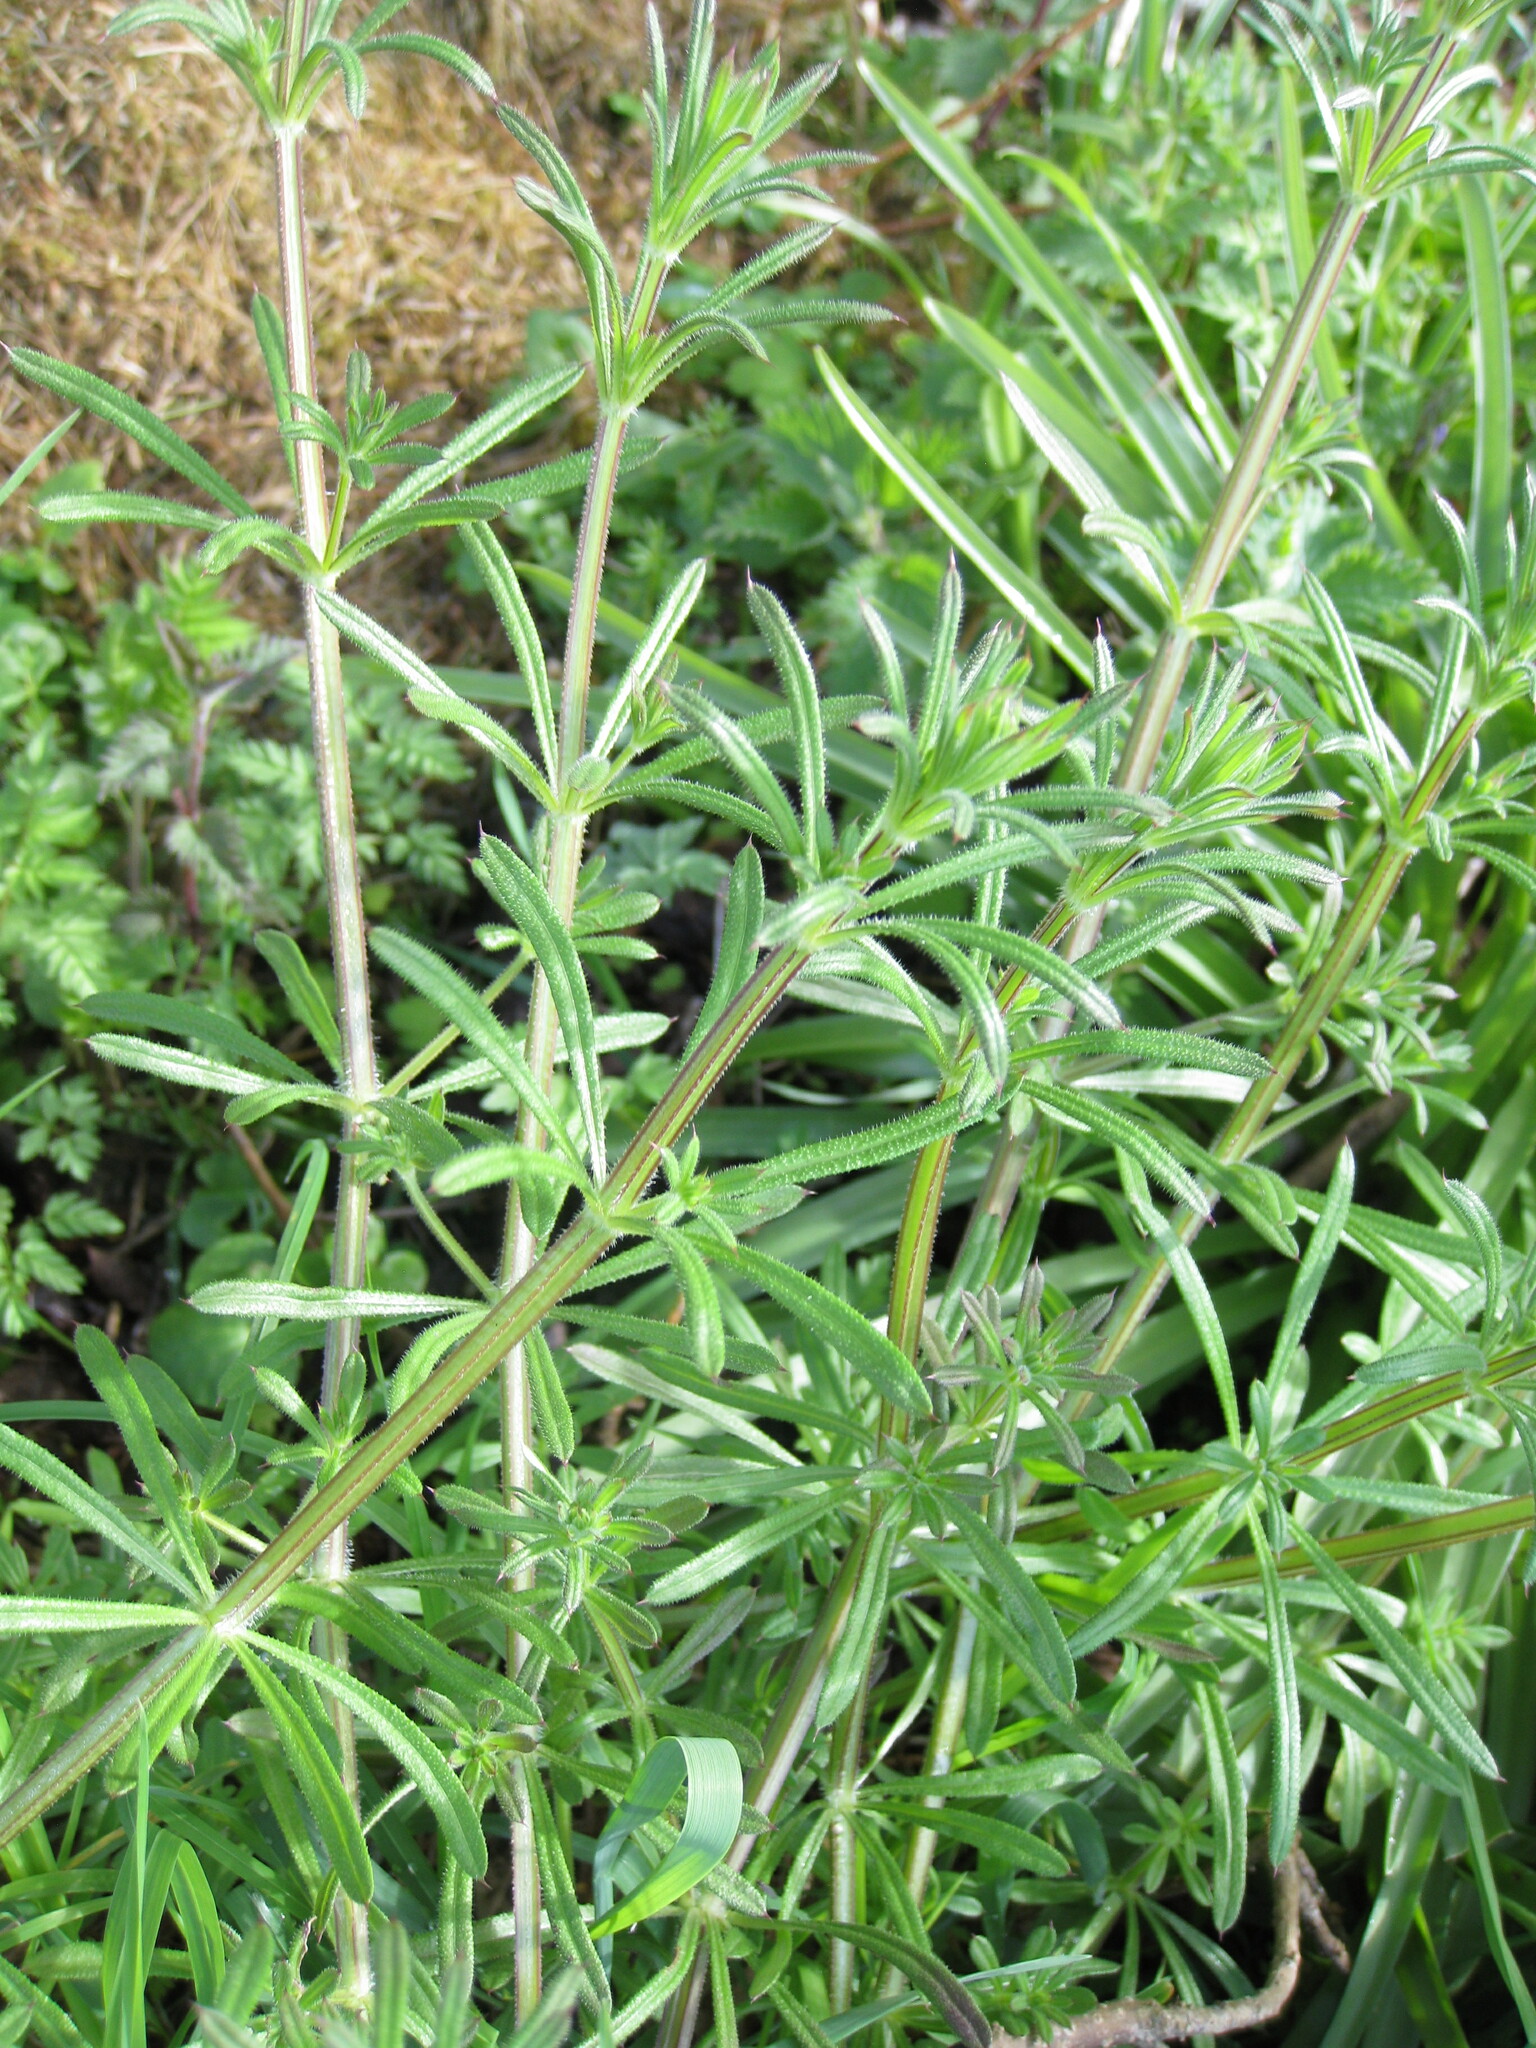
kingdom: Plantae
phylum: Tracheophyta
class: Magnoliopsida
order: Gentianales
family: Rubiaceae
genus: Galium
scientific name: Galium aparine
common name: Cleavers
